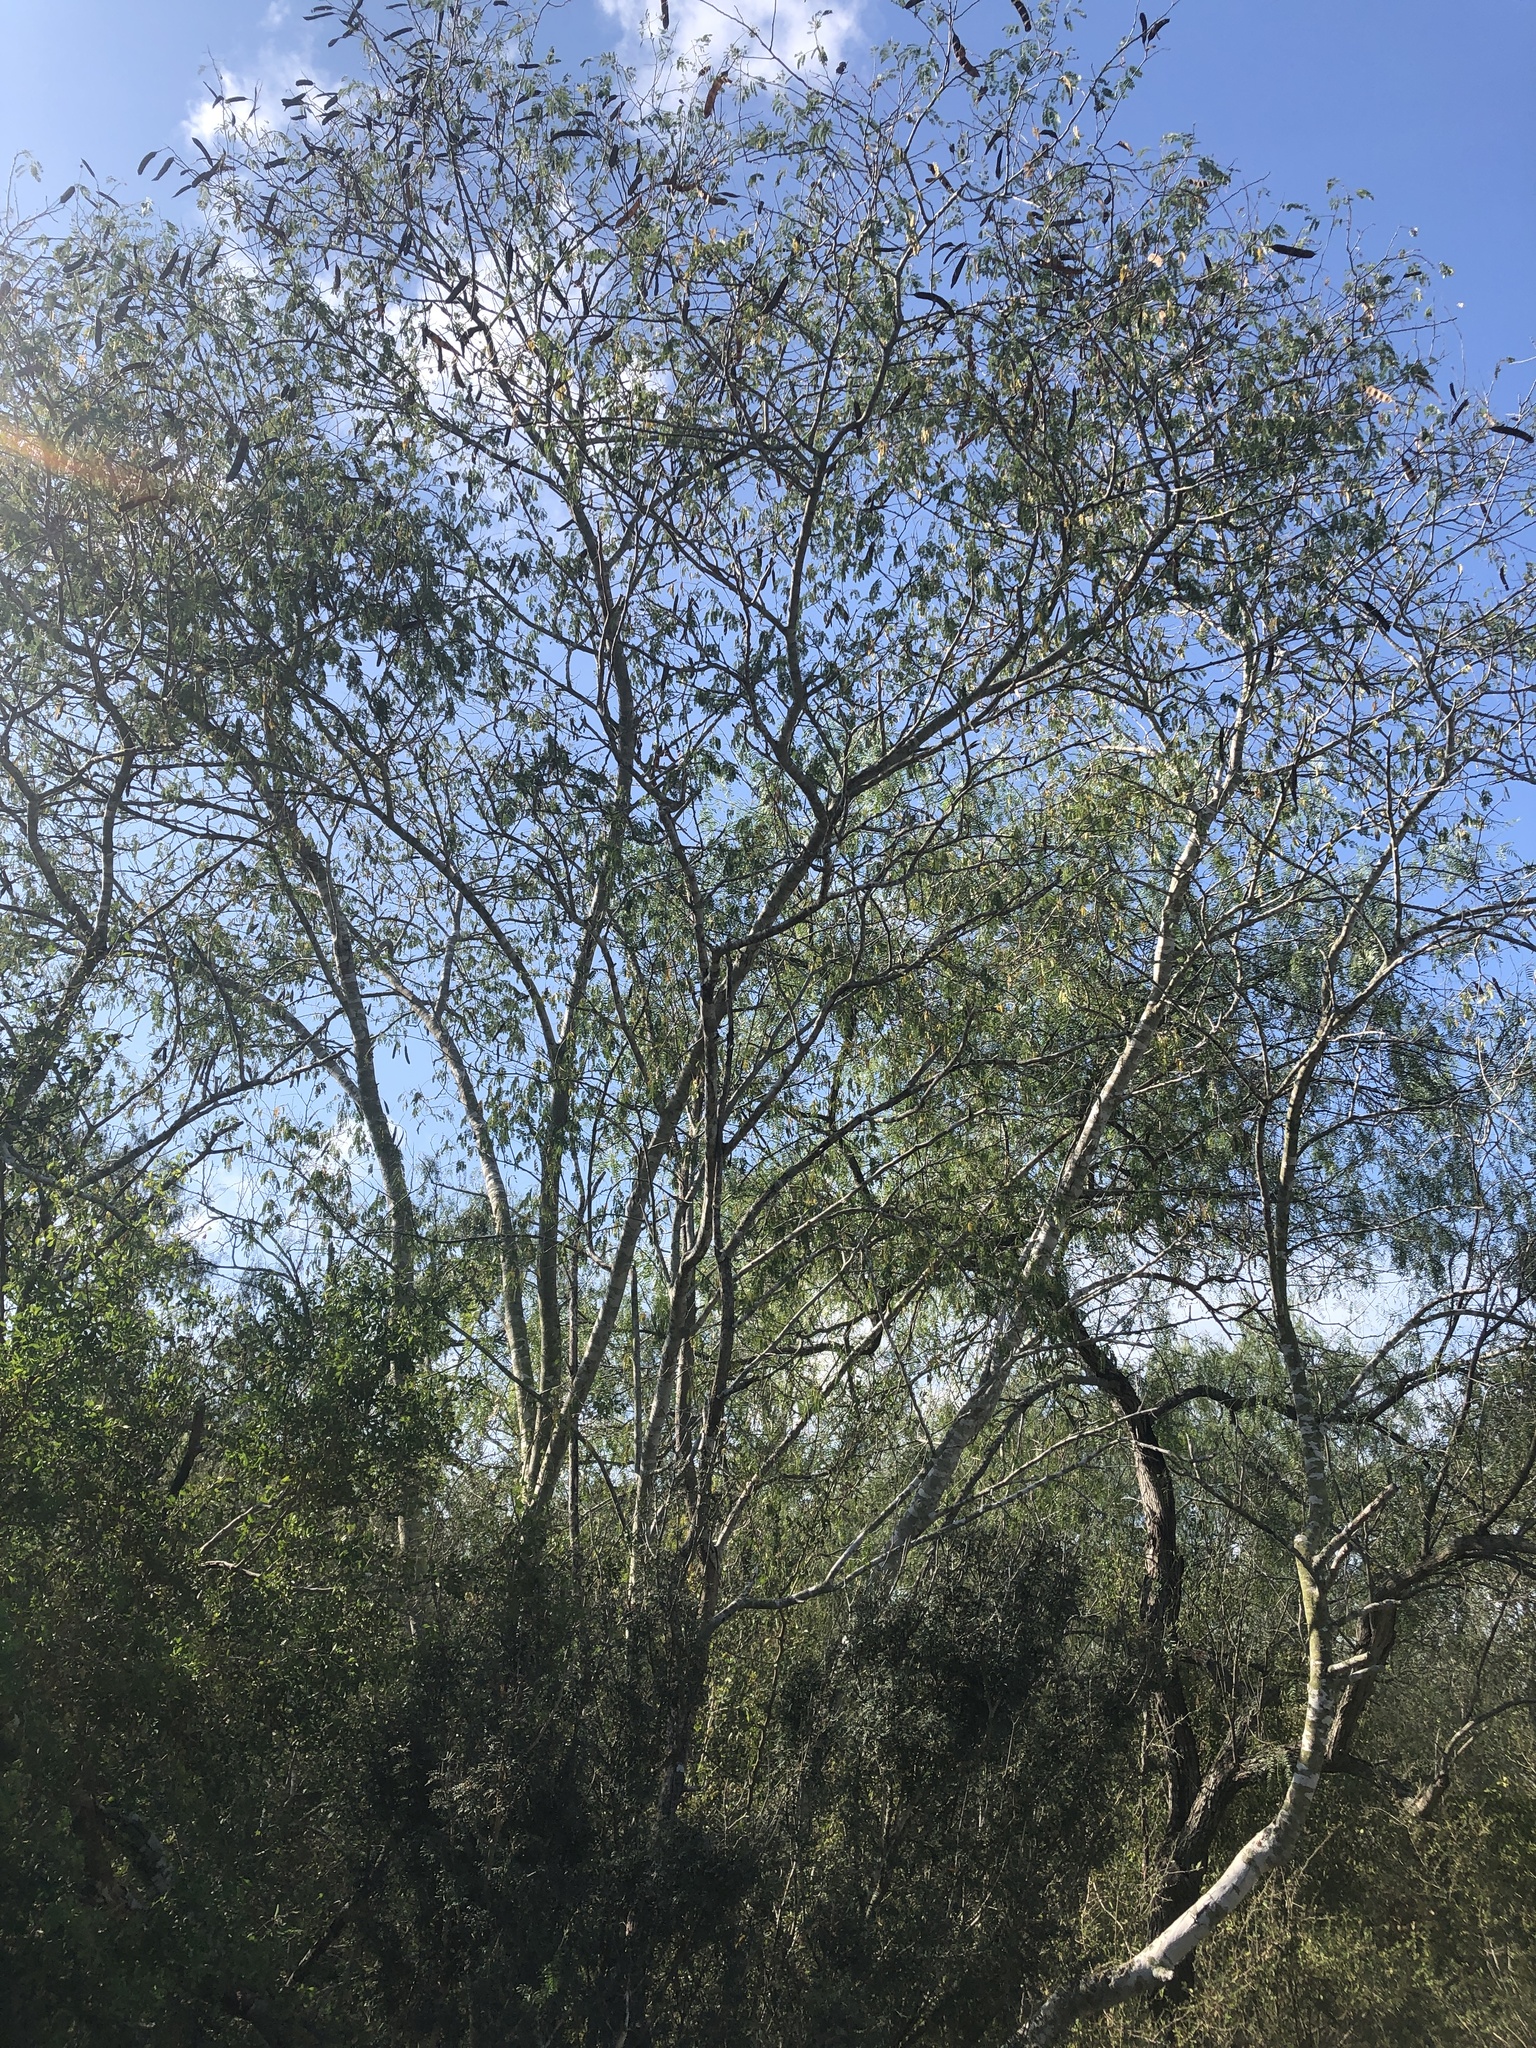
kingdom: Plantae
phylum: Tracheophyta
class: Magnoliopsida
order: Fabales
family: Fabaceae
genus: Havardia
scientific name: Havardia pallens
